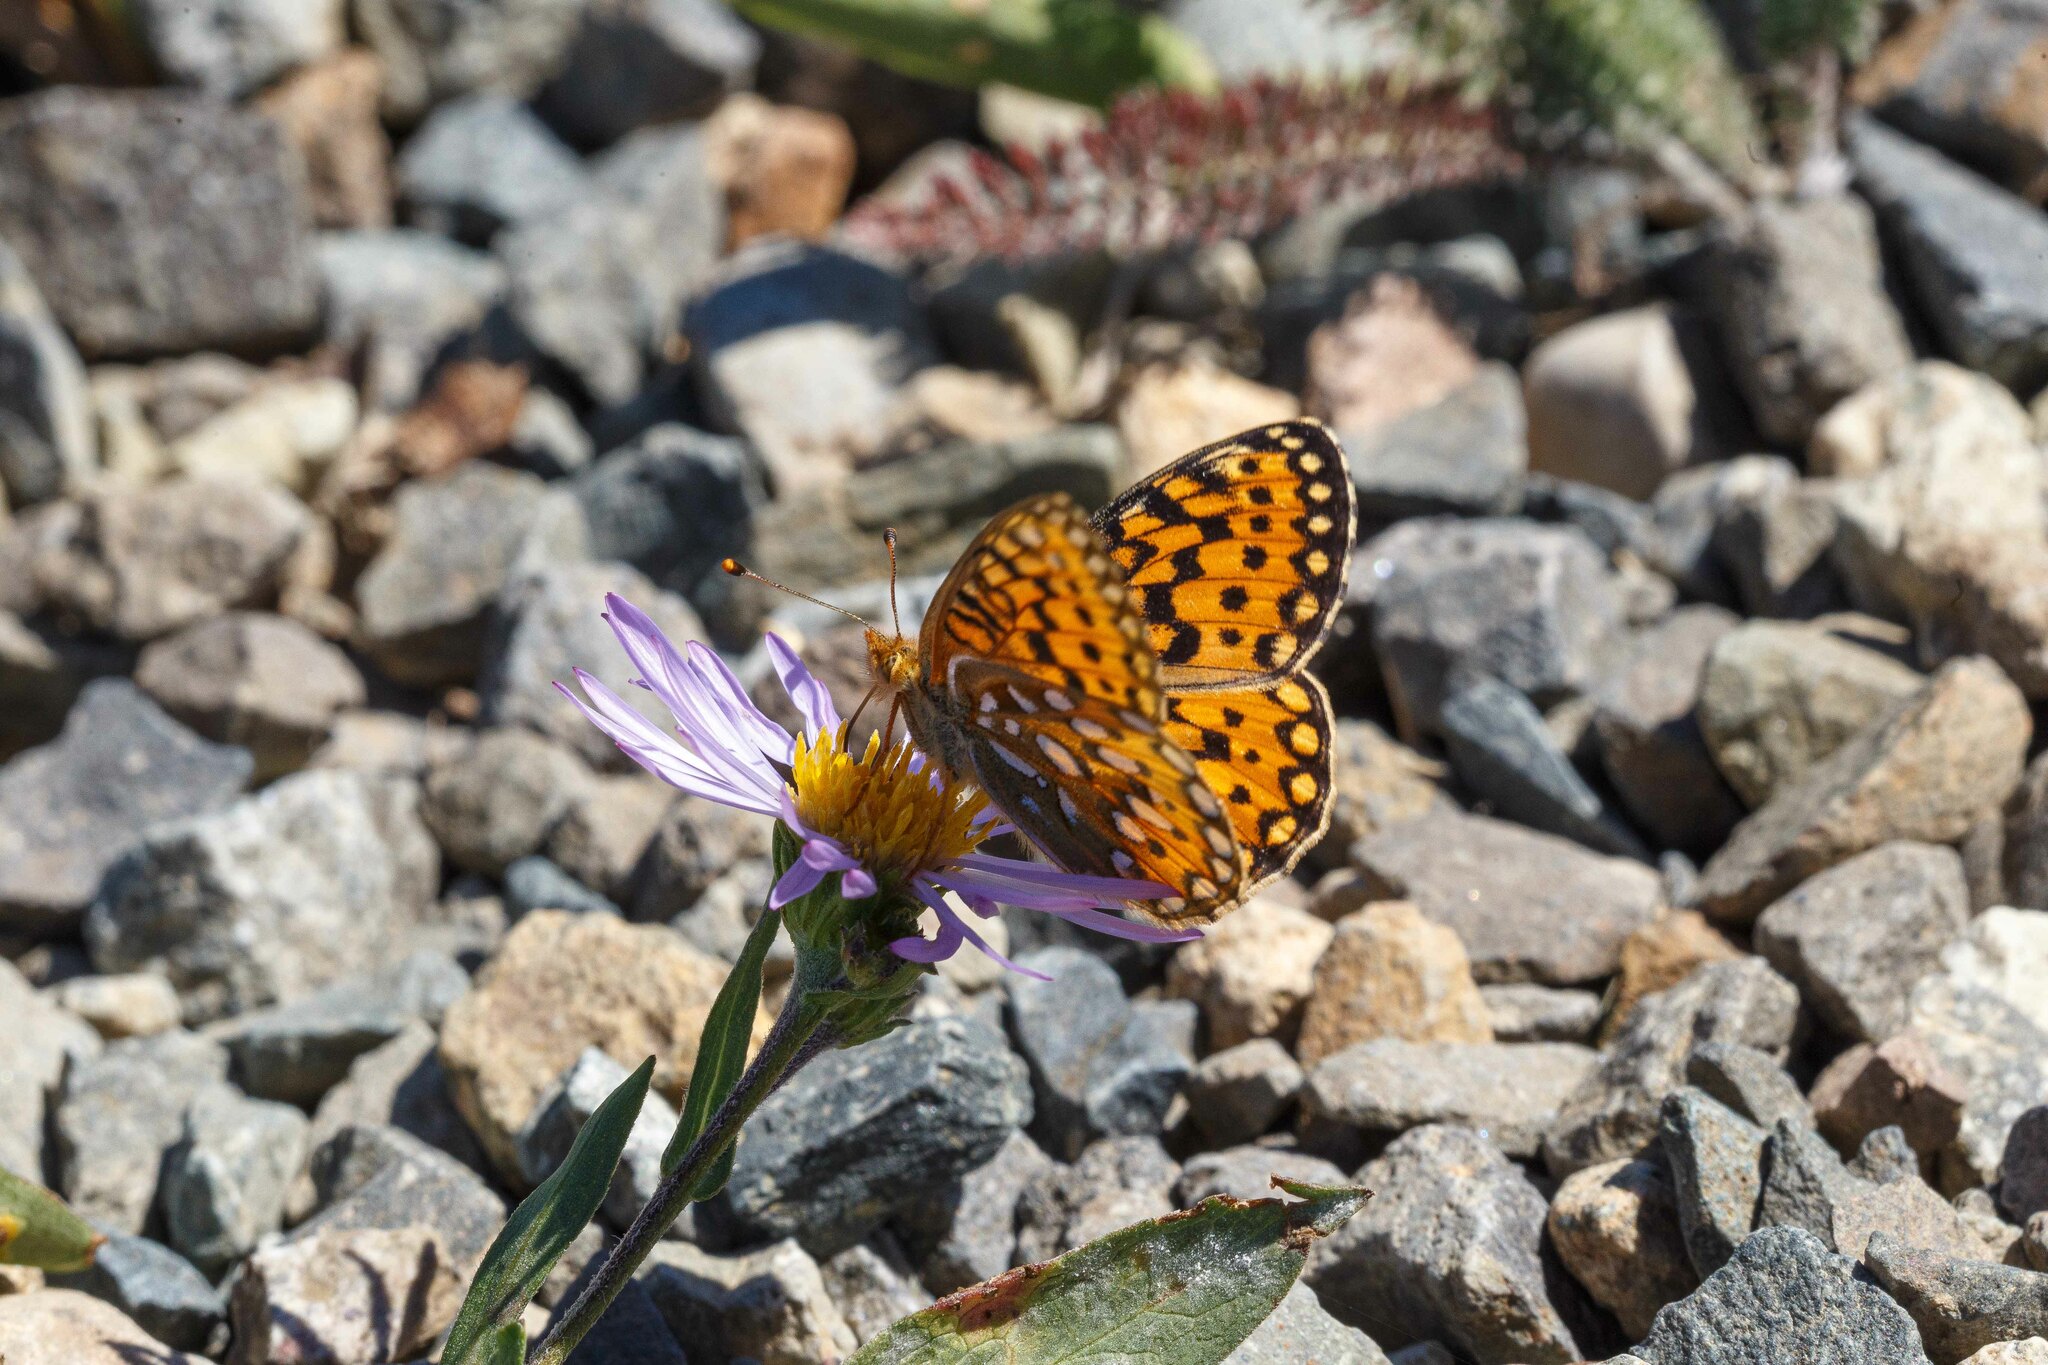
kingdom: Animalia
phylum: Arthropoda
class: Insecta
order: Lepidoptera
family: Nymphalidae
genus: Speyeria
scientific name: Speyeria mormonia
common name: Mormon fritillary
